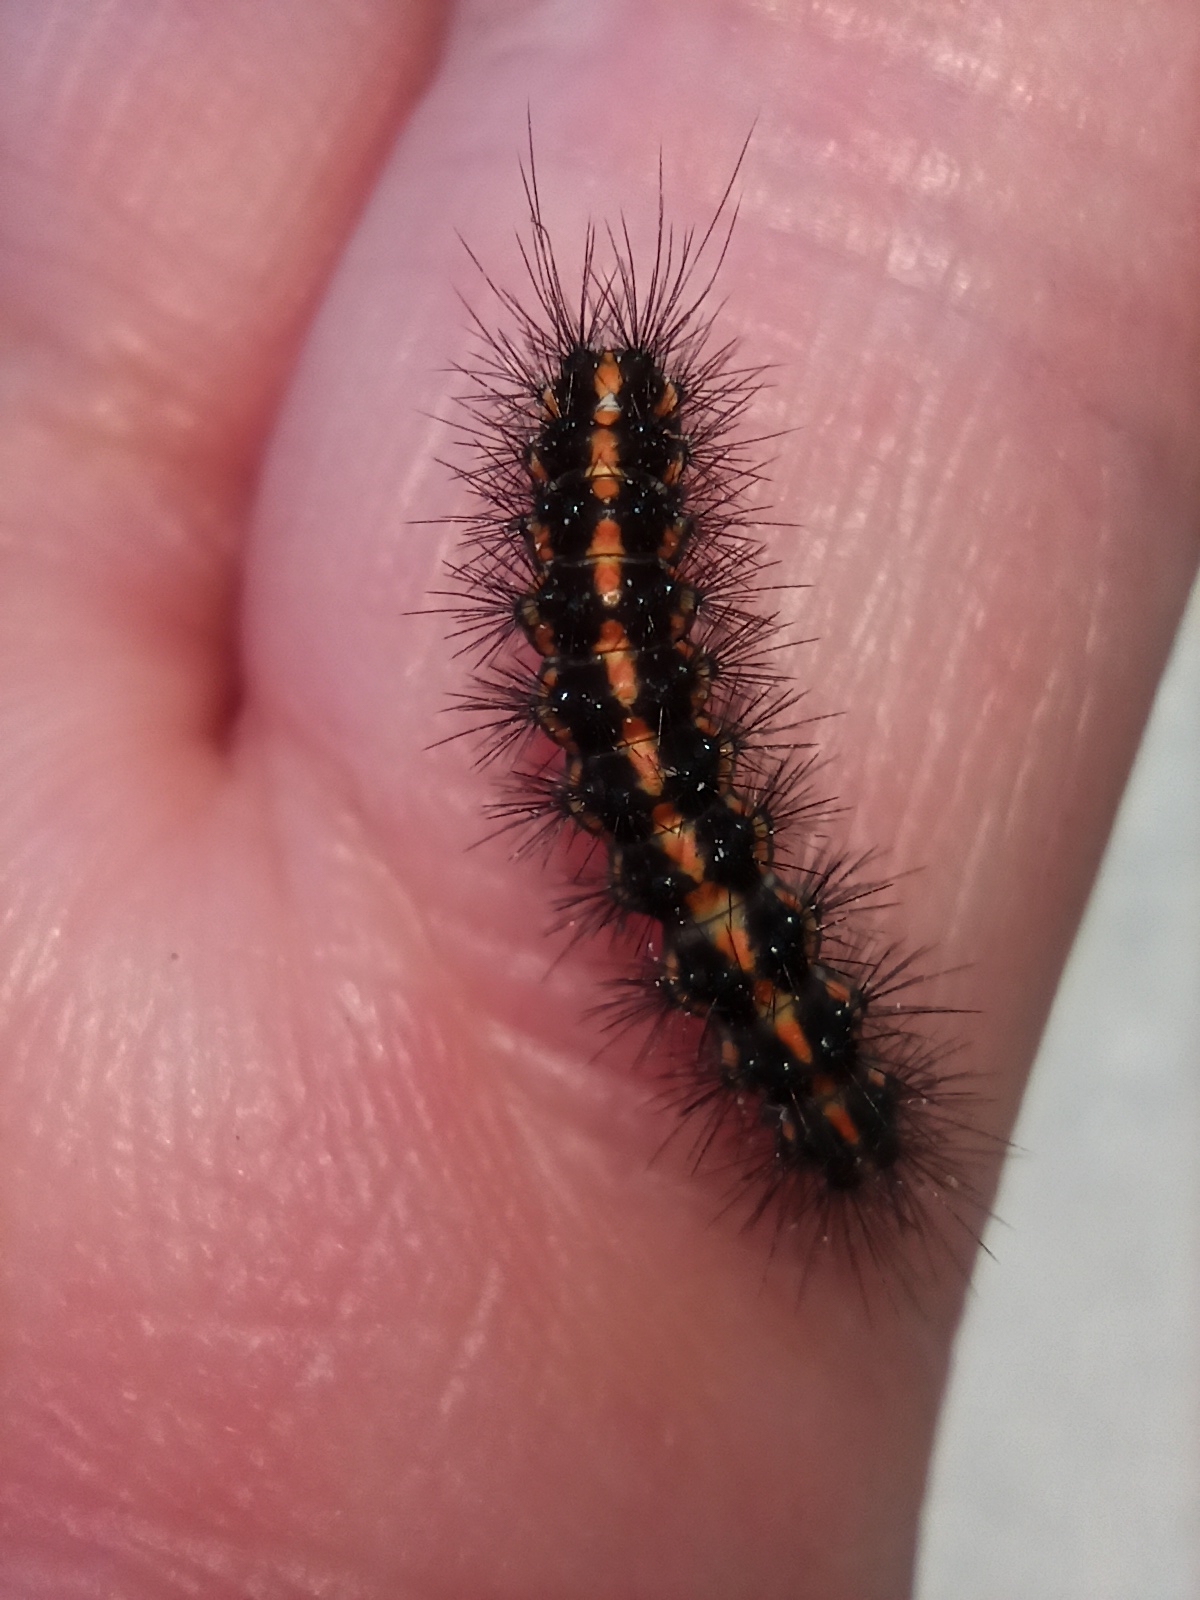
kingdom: Animalia
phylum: Arthropoda
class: Insecta
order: Lepidoptera
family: Erebidae
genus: Nyctemera
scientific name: Nyctemera annulatum
